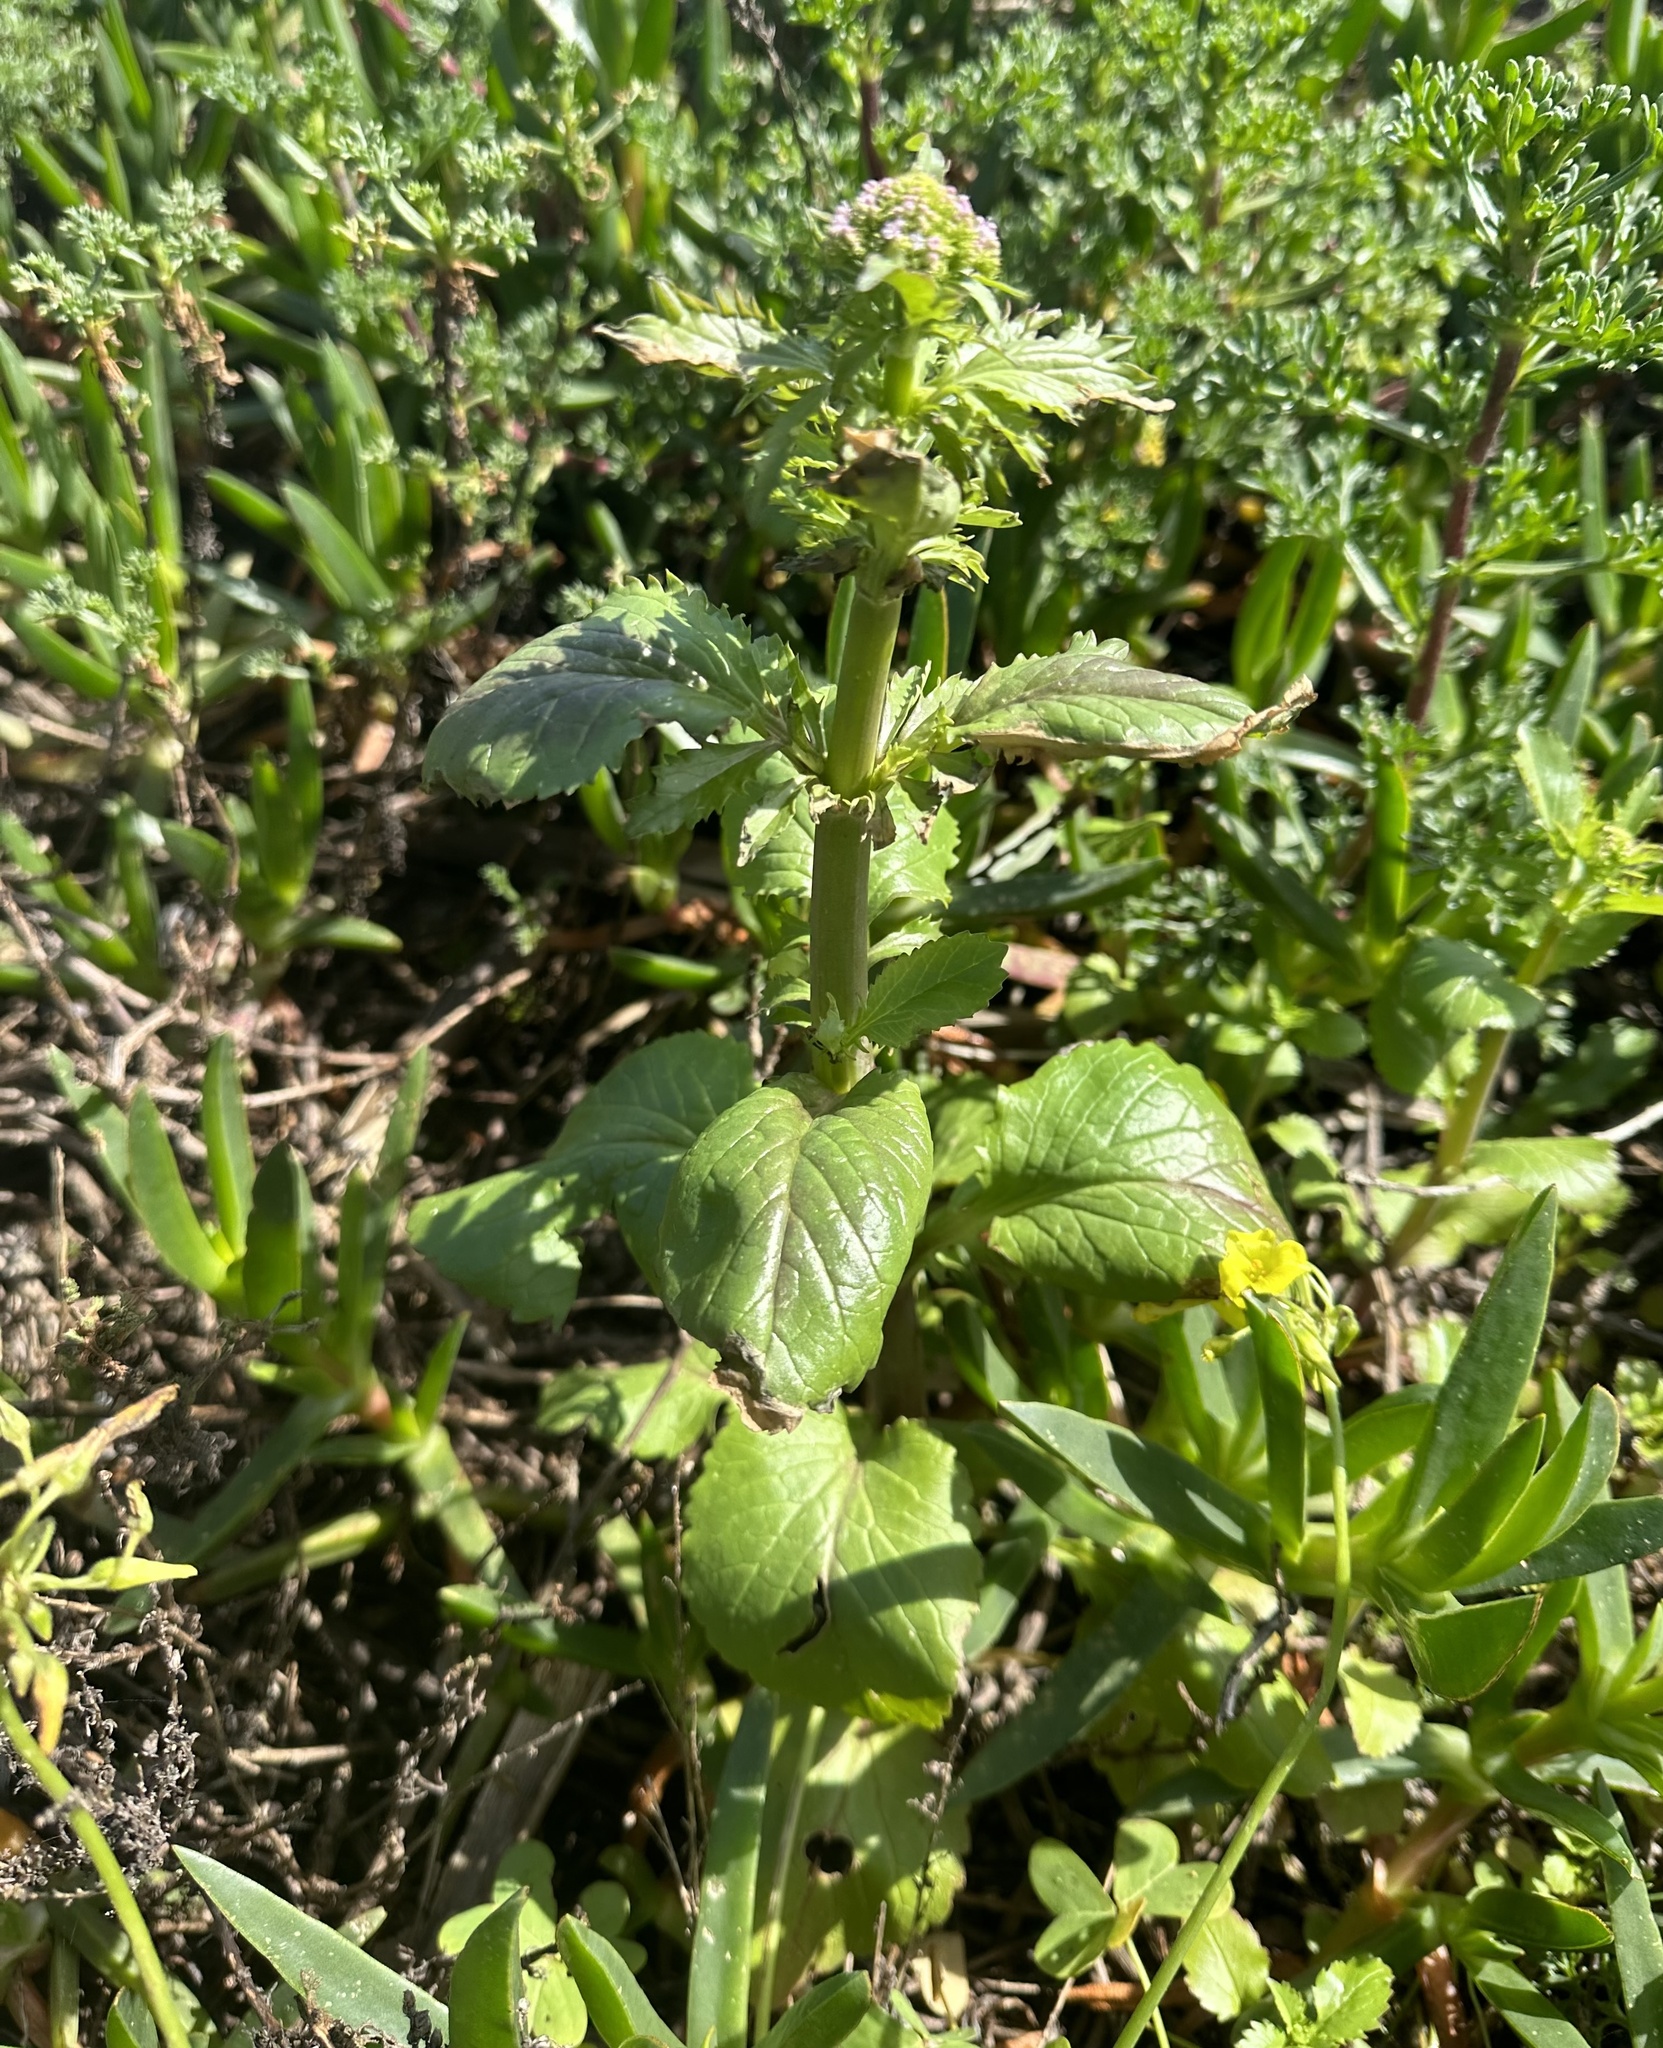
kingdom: Plantae
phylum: Tracheophyta
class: Magnoliopsida
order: Dipsacales
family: Caprifoliaceae
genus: Centranthus
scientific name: Centranthus calcitrapae
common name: Annual valerian
